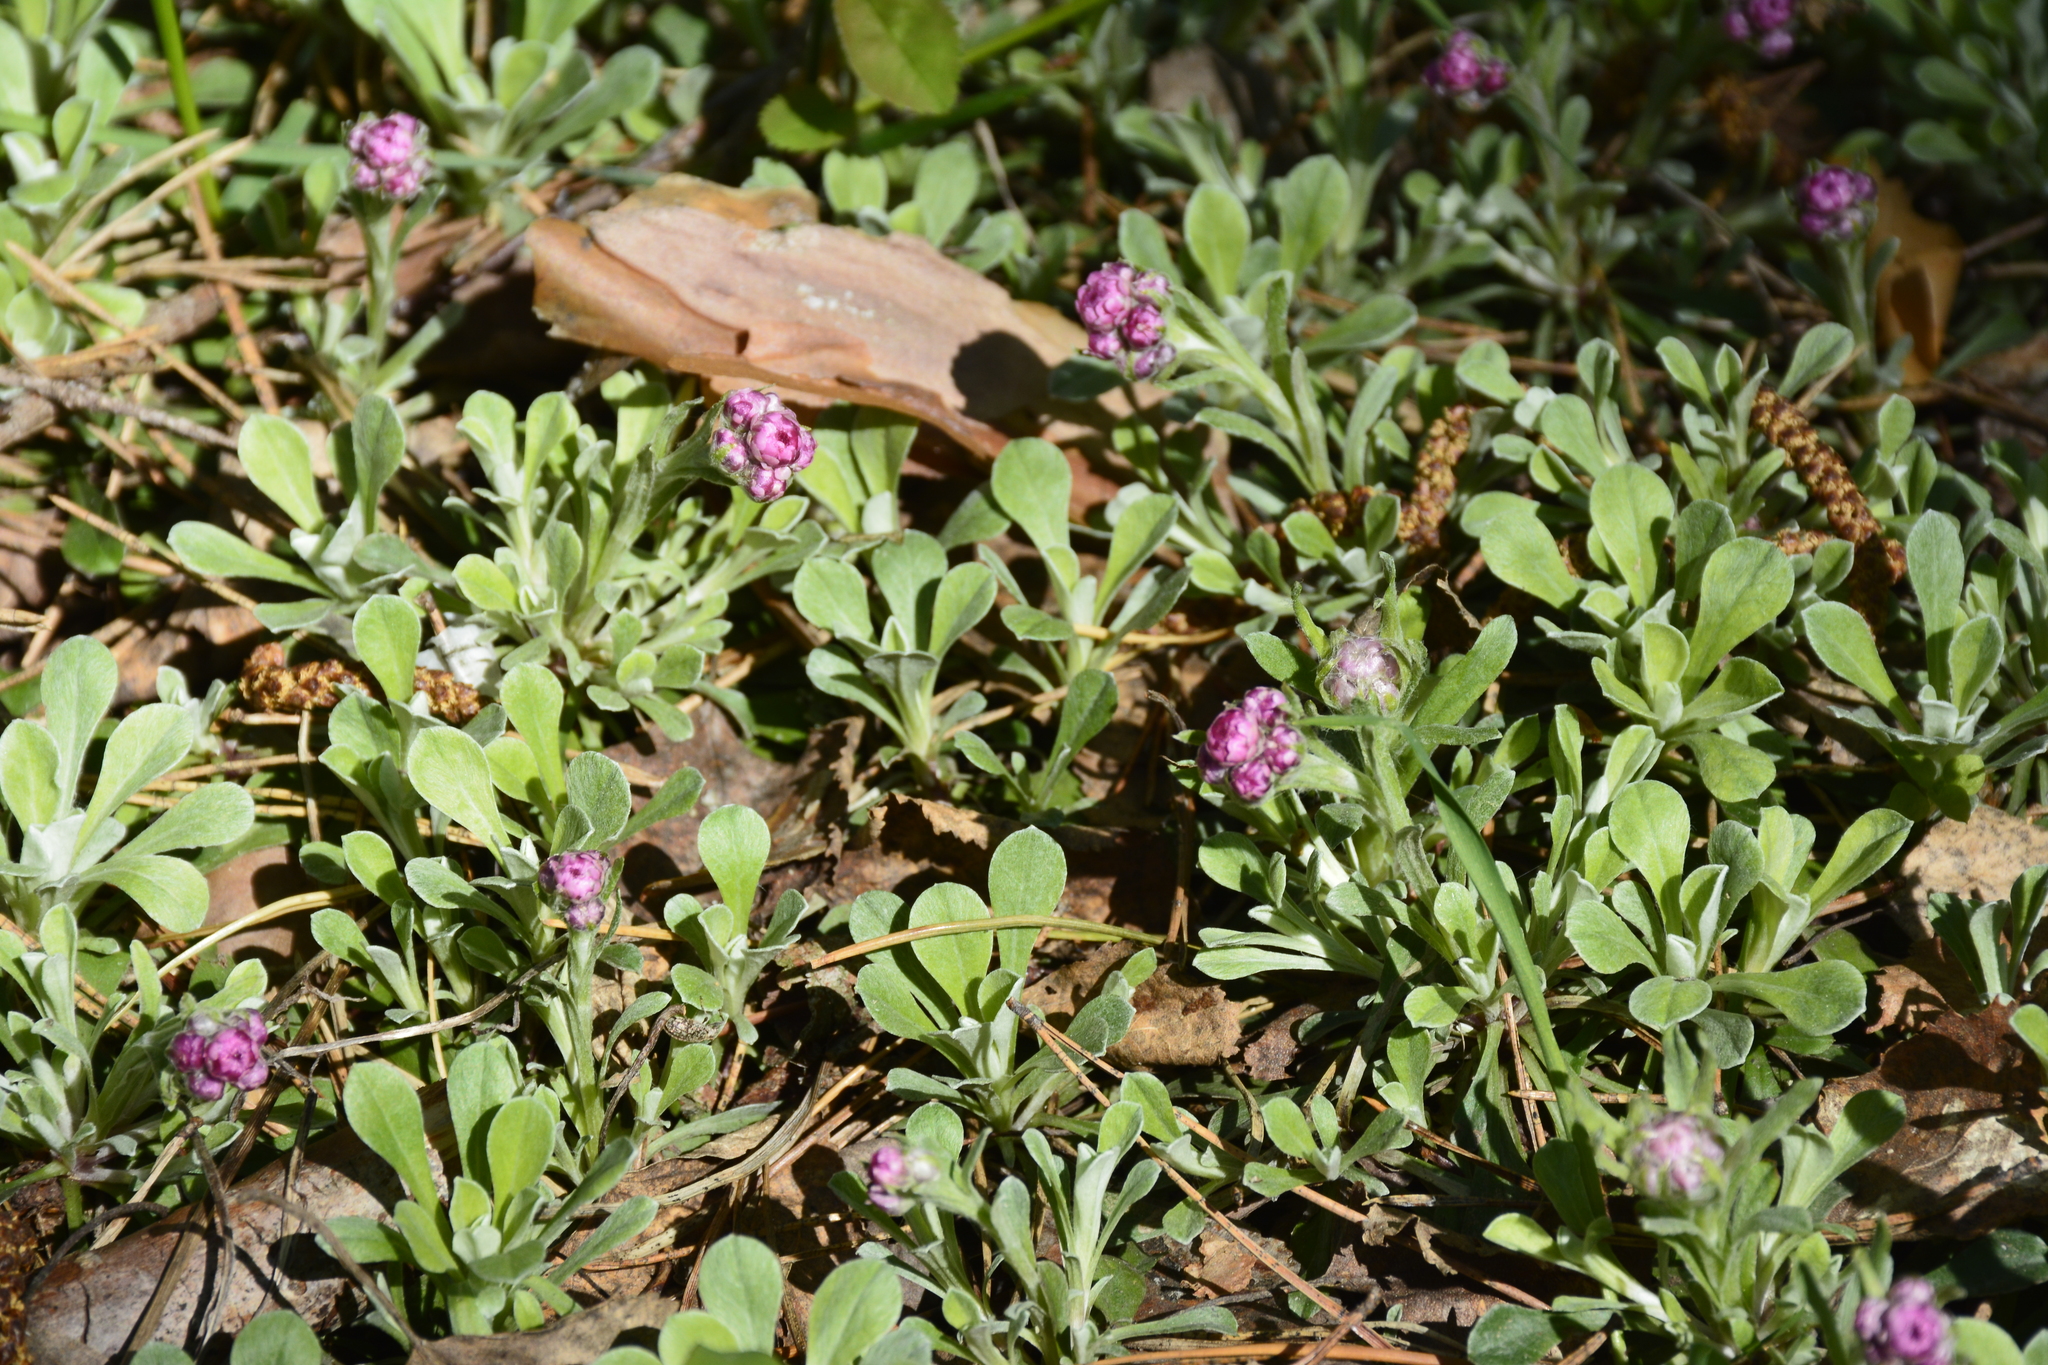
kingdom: Plantae
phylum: Tracheophyta
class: Magnoliopsida
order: Asterales
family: Asteraceae
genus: Antennaria
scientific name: Antennaria dioica
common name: Mountain everlasting
